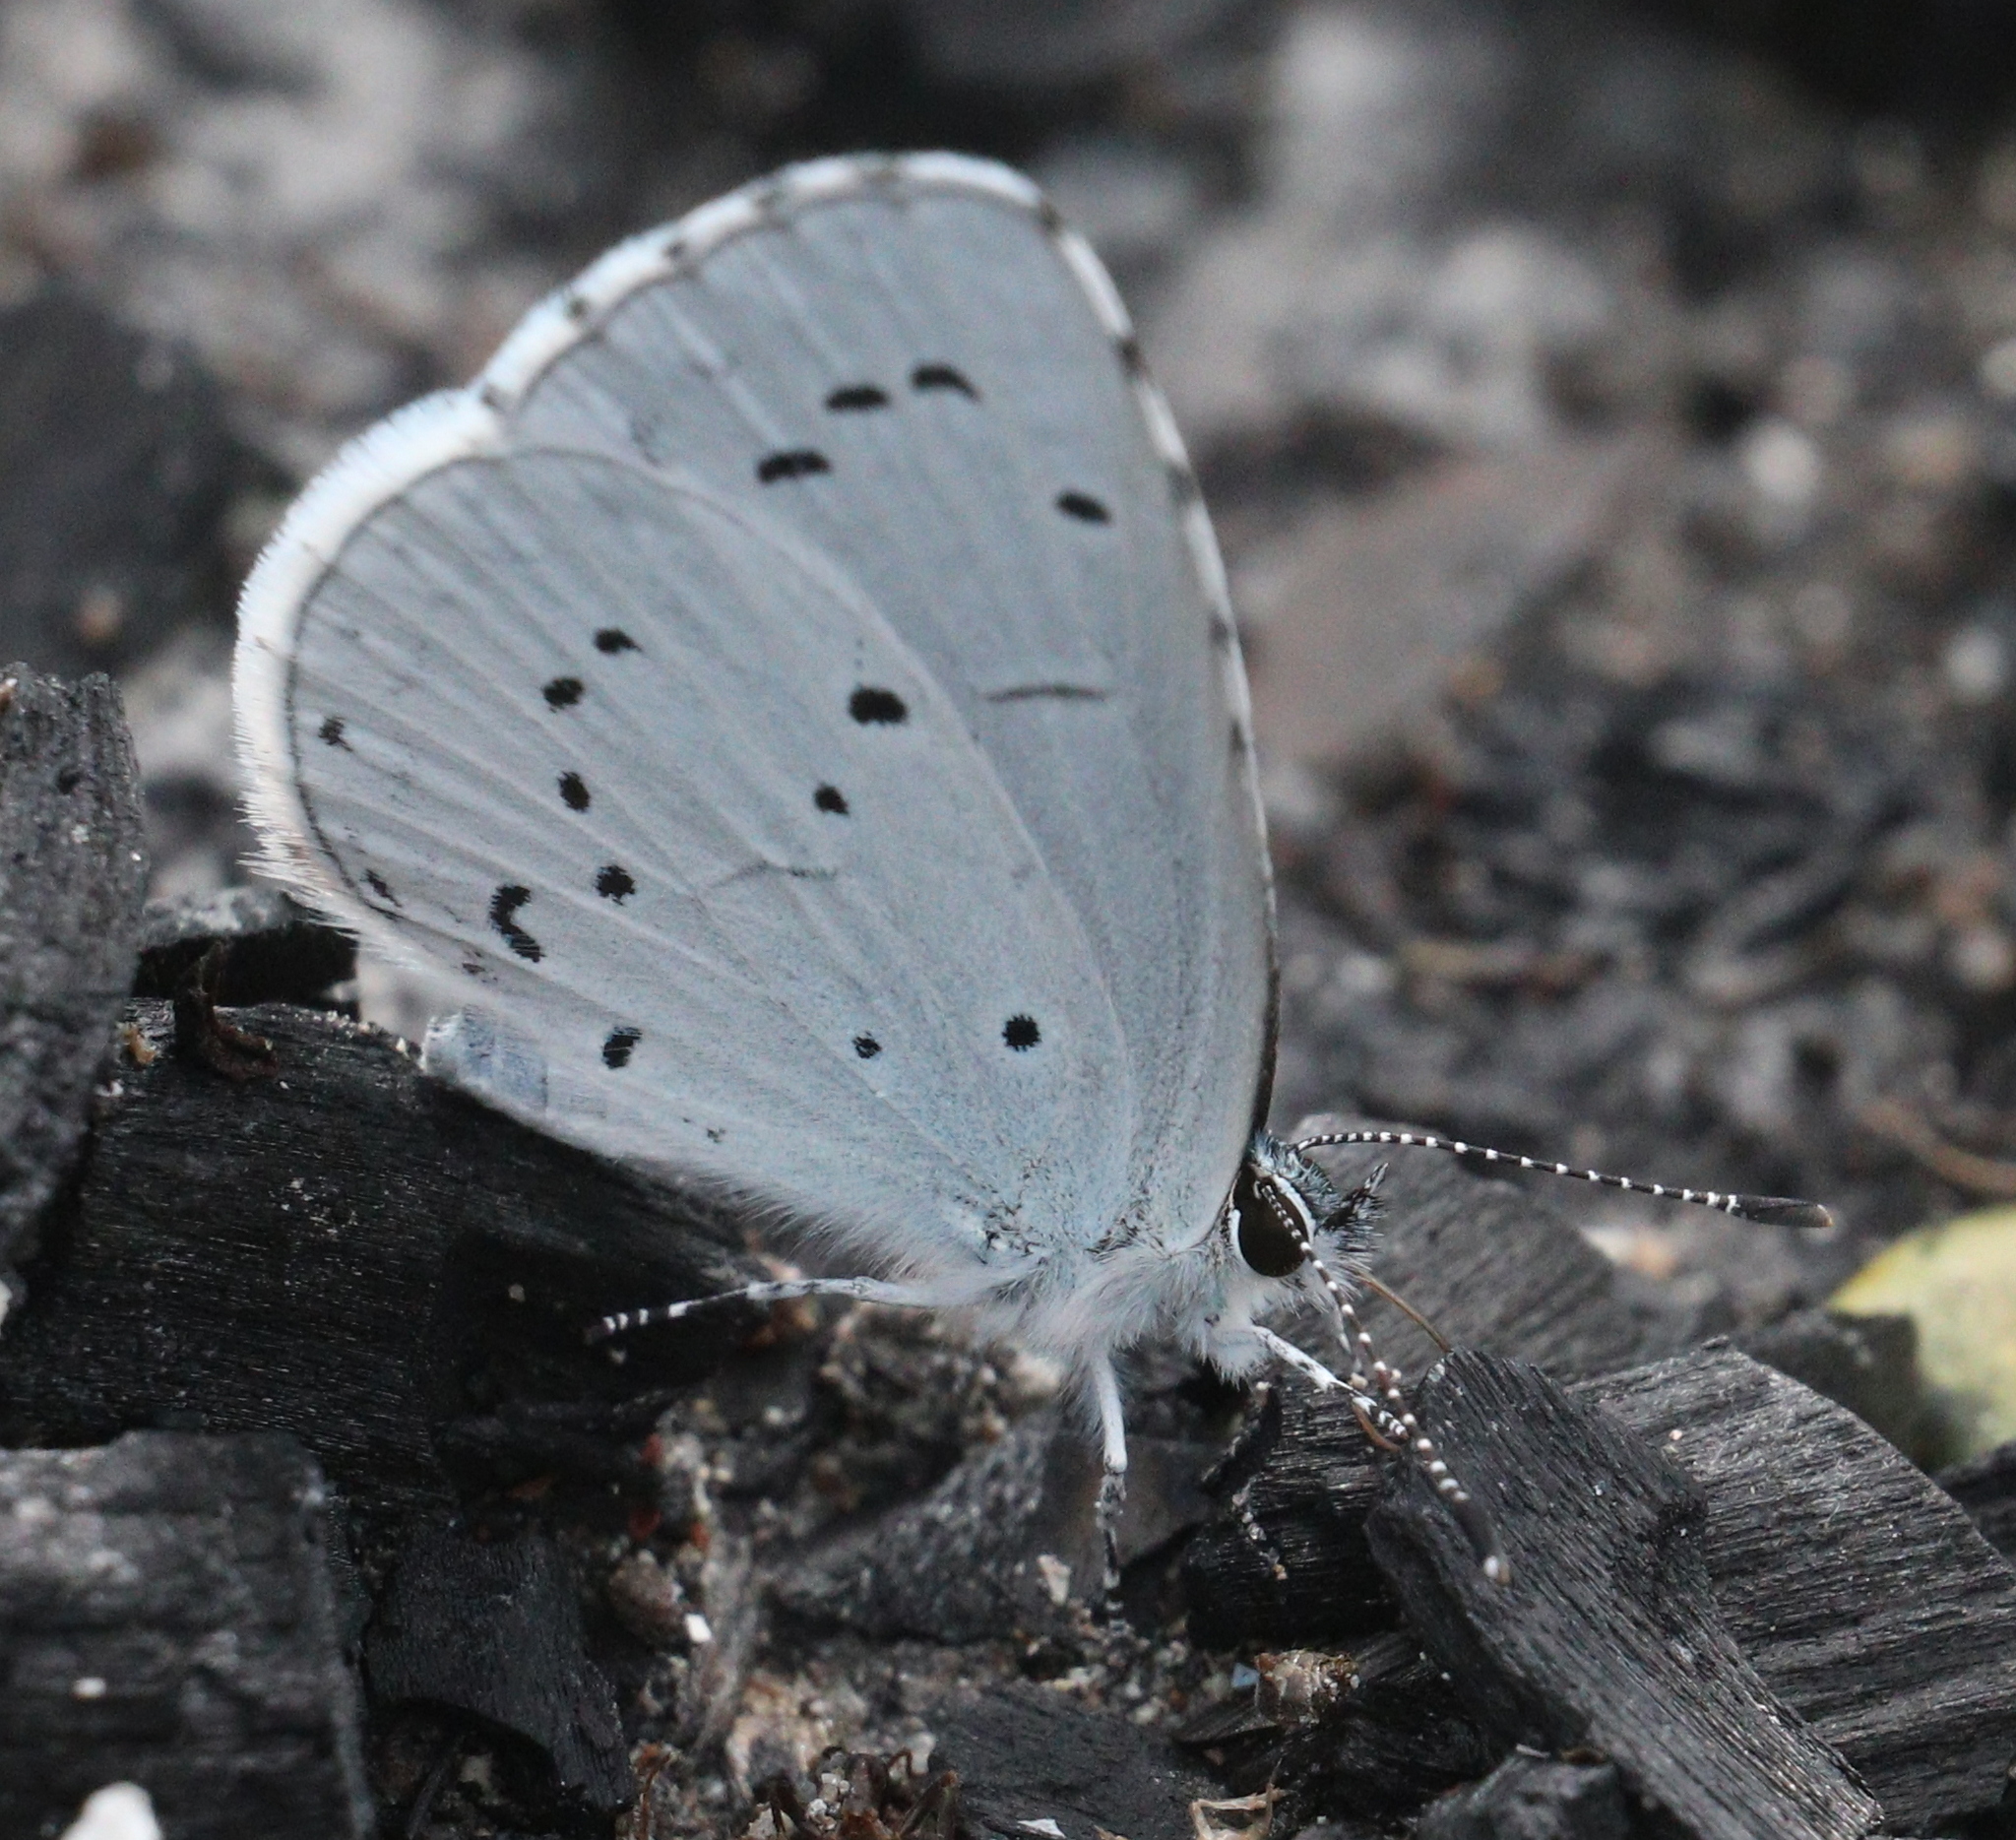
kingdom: Animalia
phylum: Arthropoda
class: Insecta
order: Lepidoptera
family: Lycaenidae
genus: Celastrina
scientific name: Celastrina argiolus
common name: Holly blue
